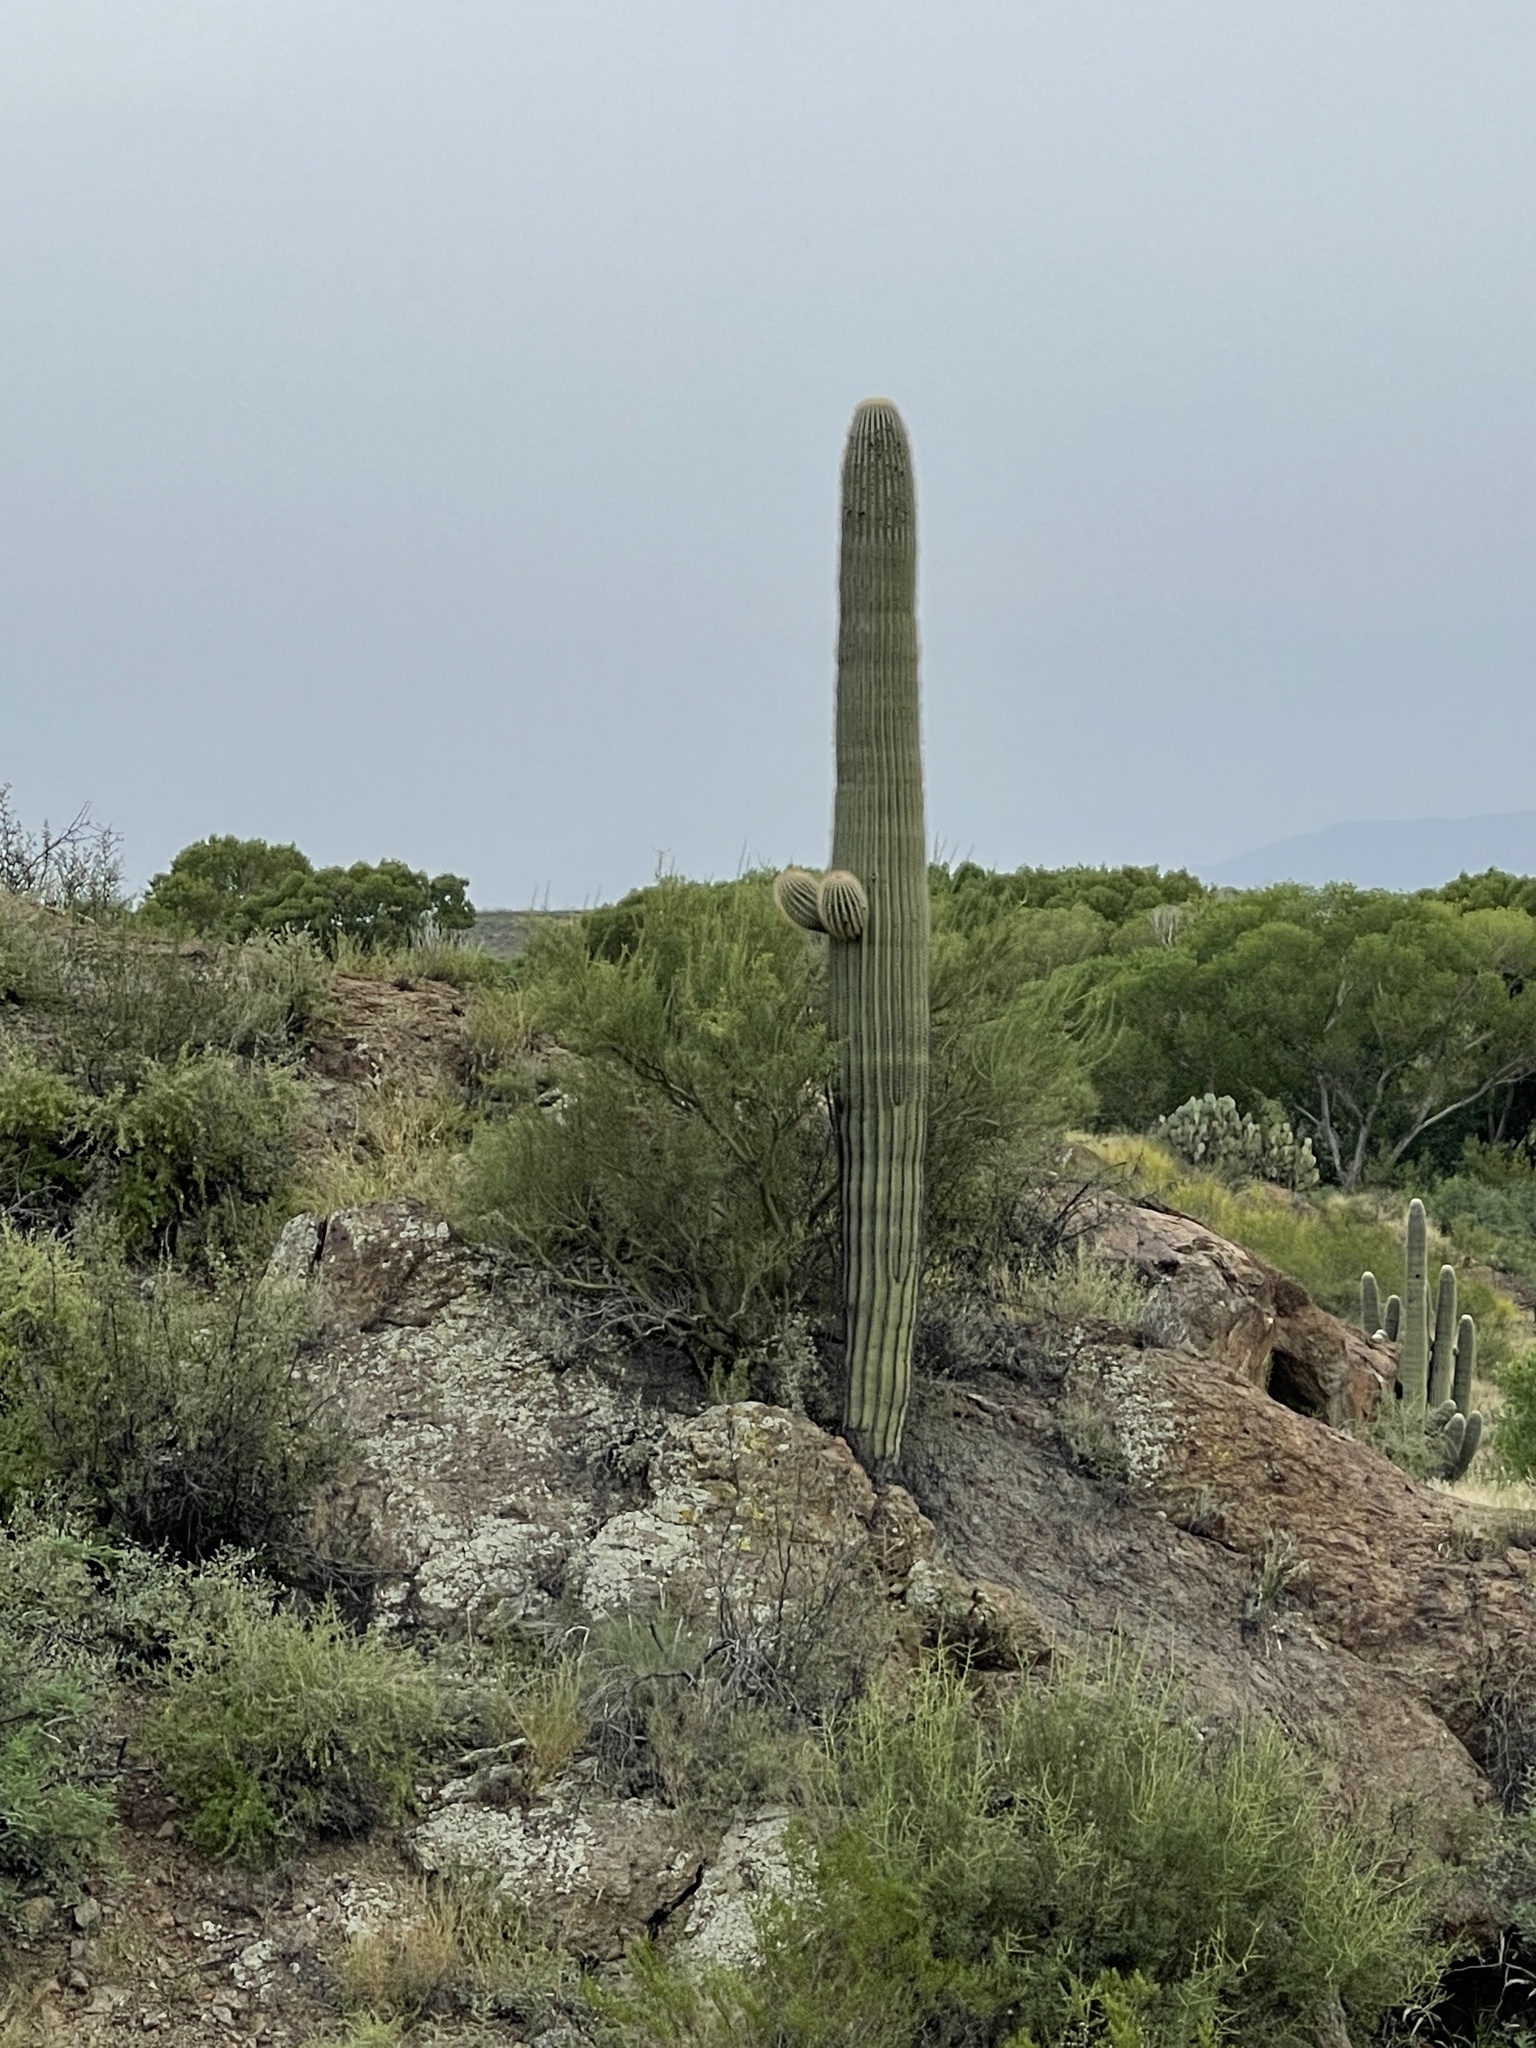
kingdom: Plantae
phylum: Tracheophyta
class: Magnoliopsida
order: Caryophyllales
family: Cactaceae
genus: Carnegiea
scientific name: Carnegiea gigantea
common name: Saguaro
